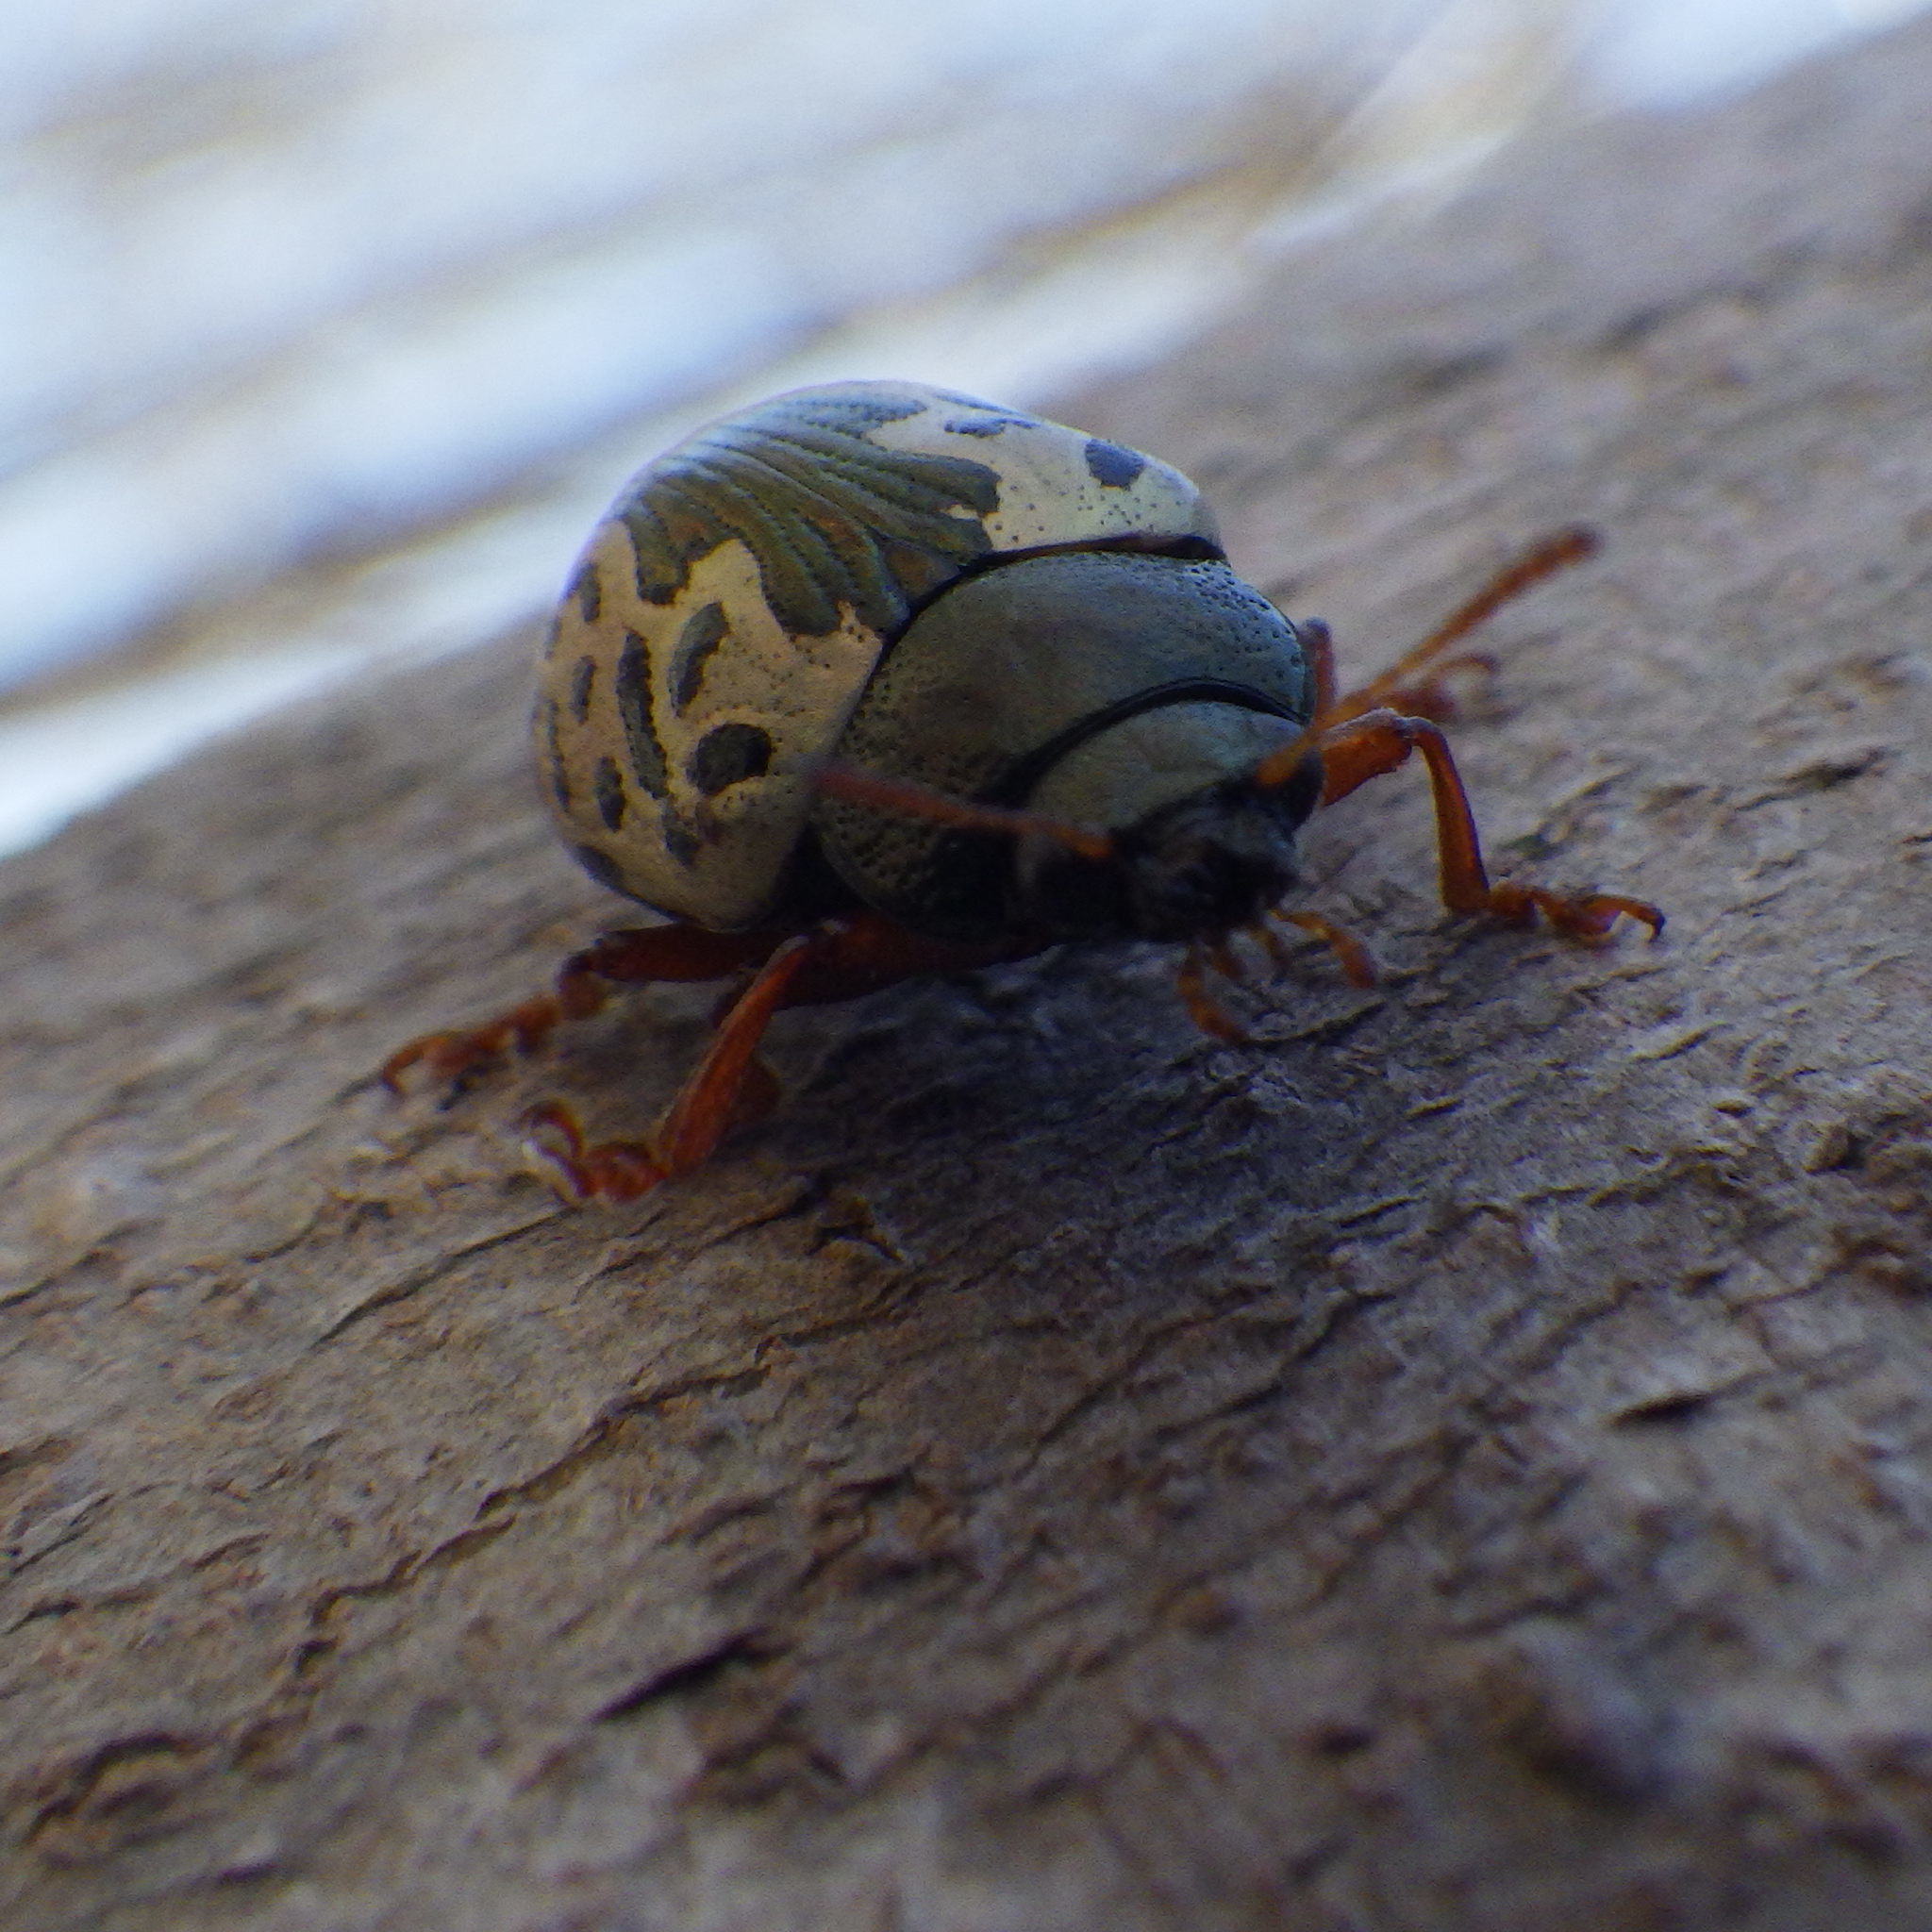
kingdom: Animalia
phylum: Arthropoda
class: Insecta
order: Coleoptera
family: Chrysomelidae
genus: Calligrapha
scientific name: Calligrapha confluens
